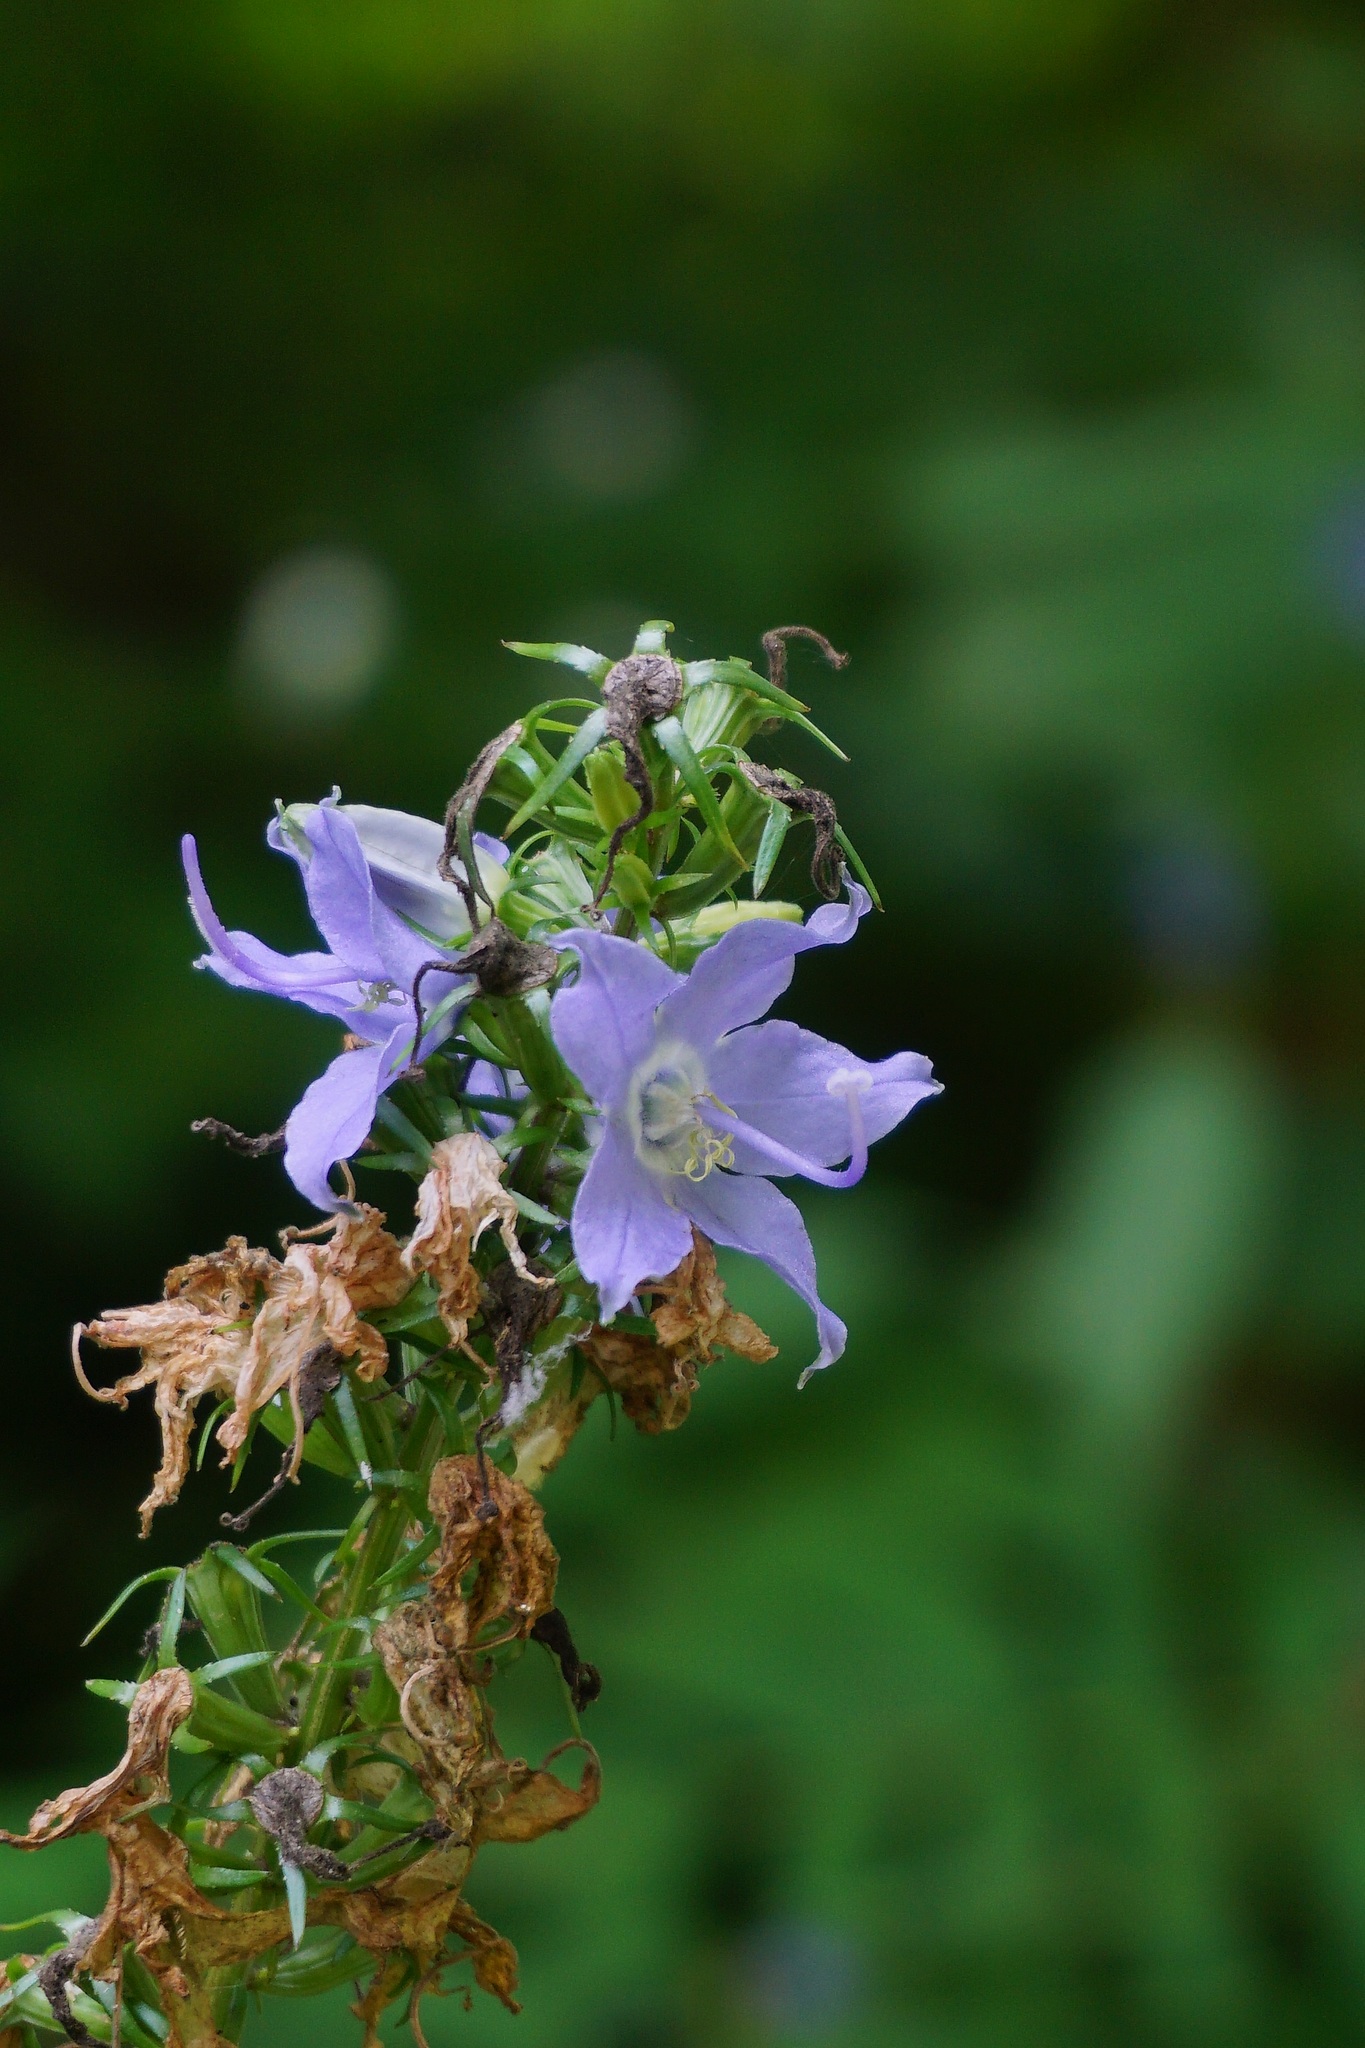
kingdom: Plantae
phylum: Tracheophyta
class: Magnoliopsida
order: Asterales
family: Campanulaceae
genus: Campanulastrum
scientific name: Campanulastrum americanum
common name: American bellflower
